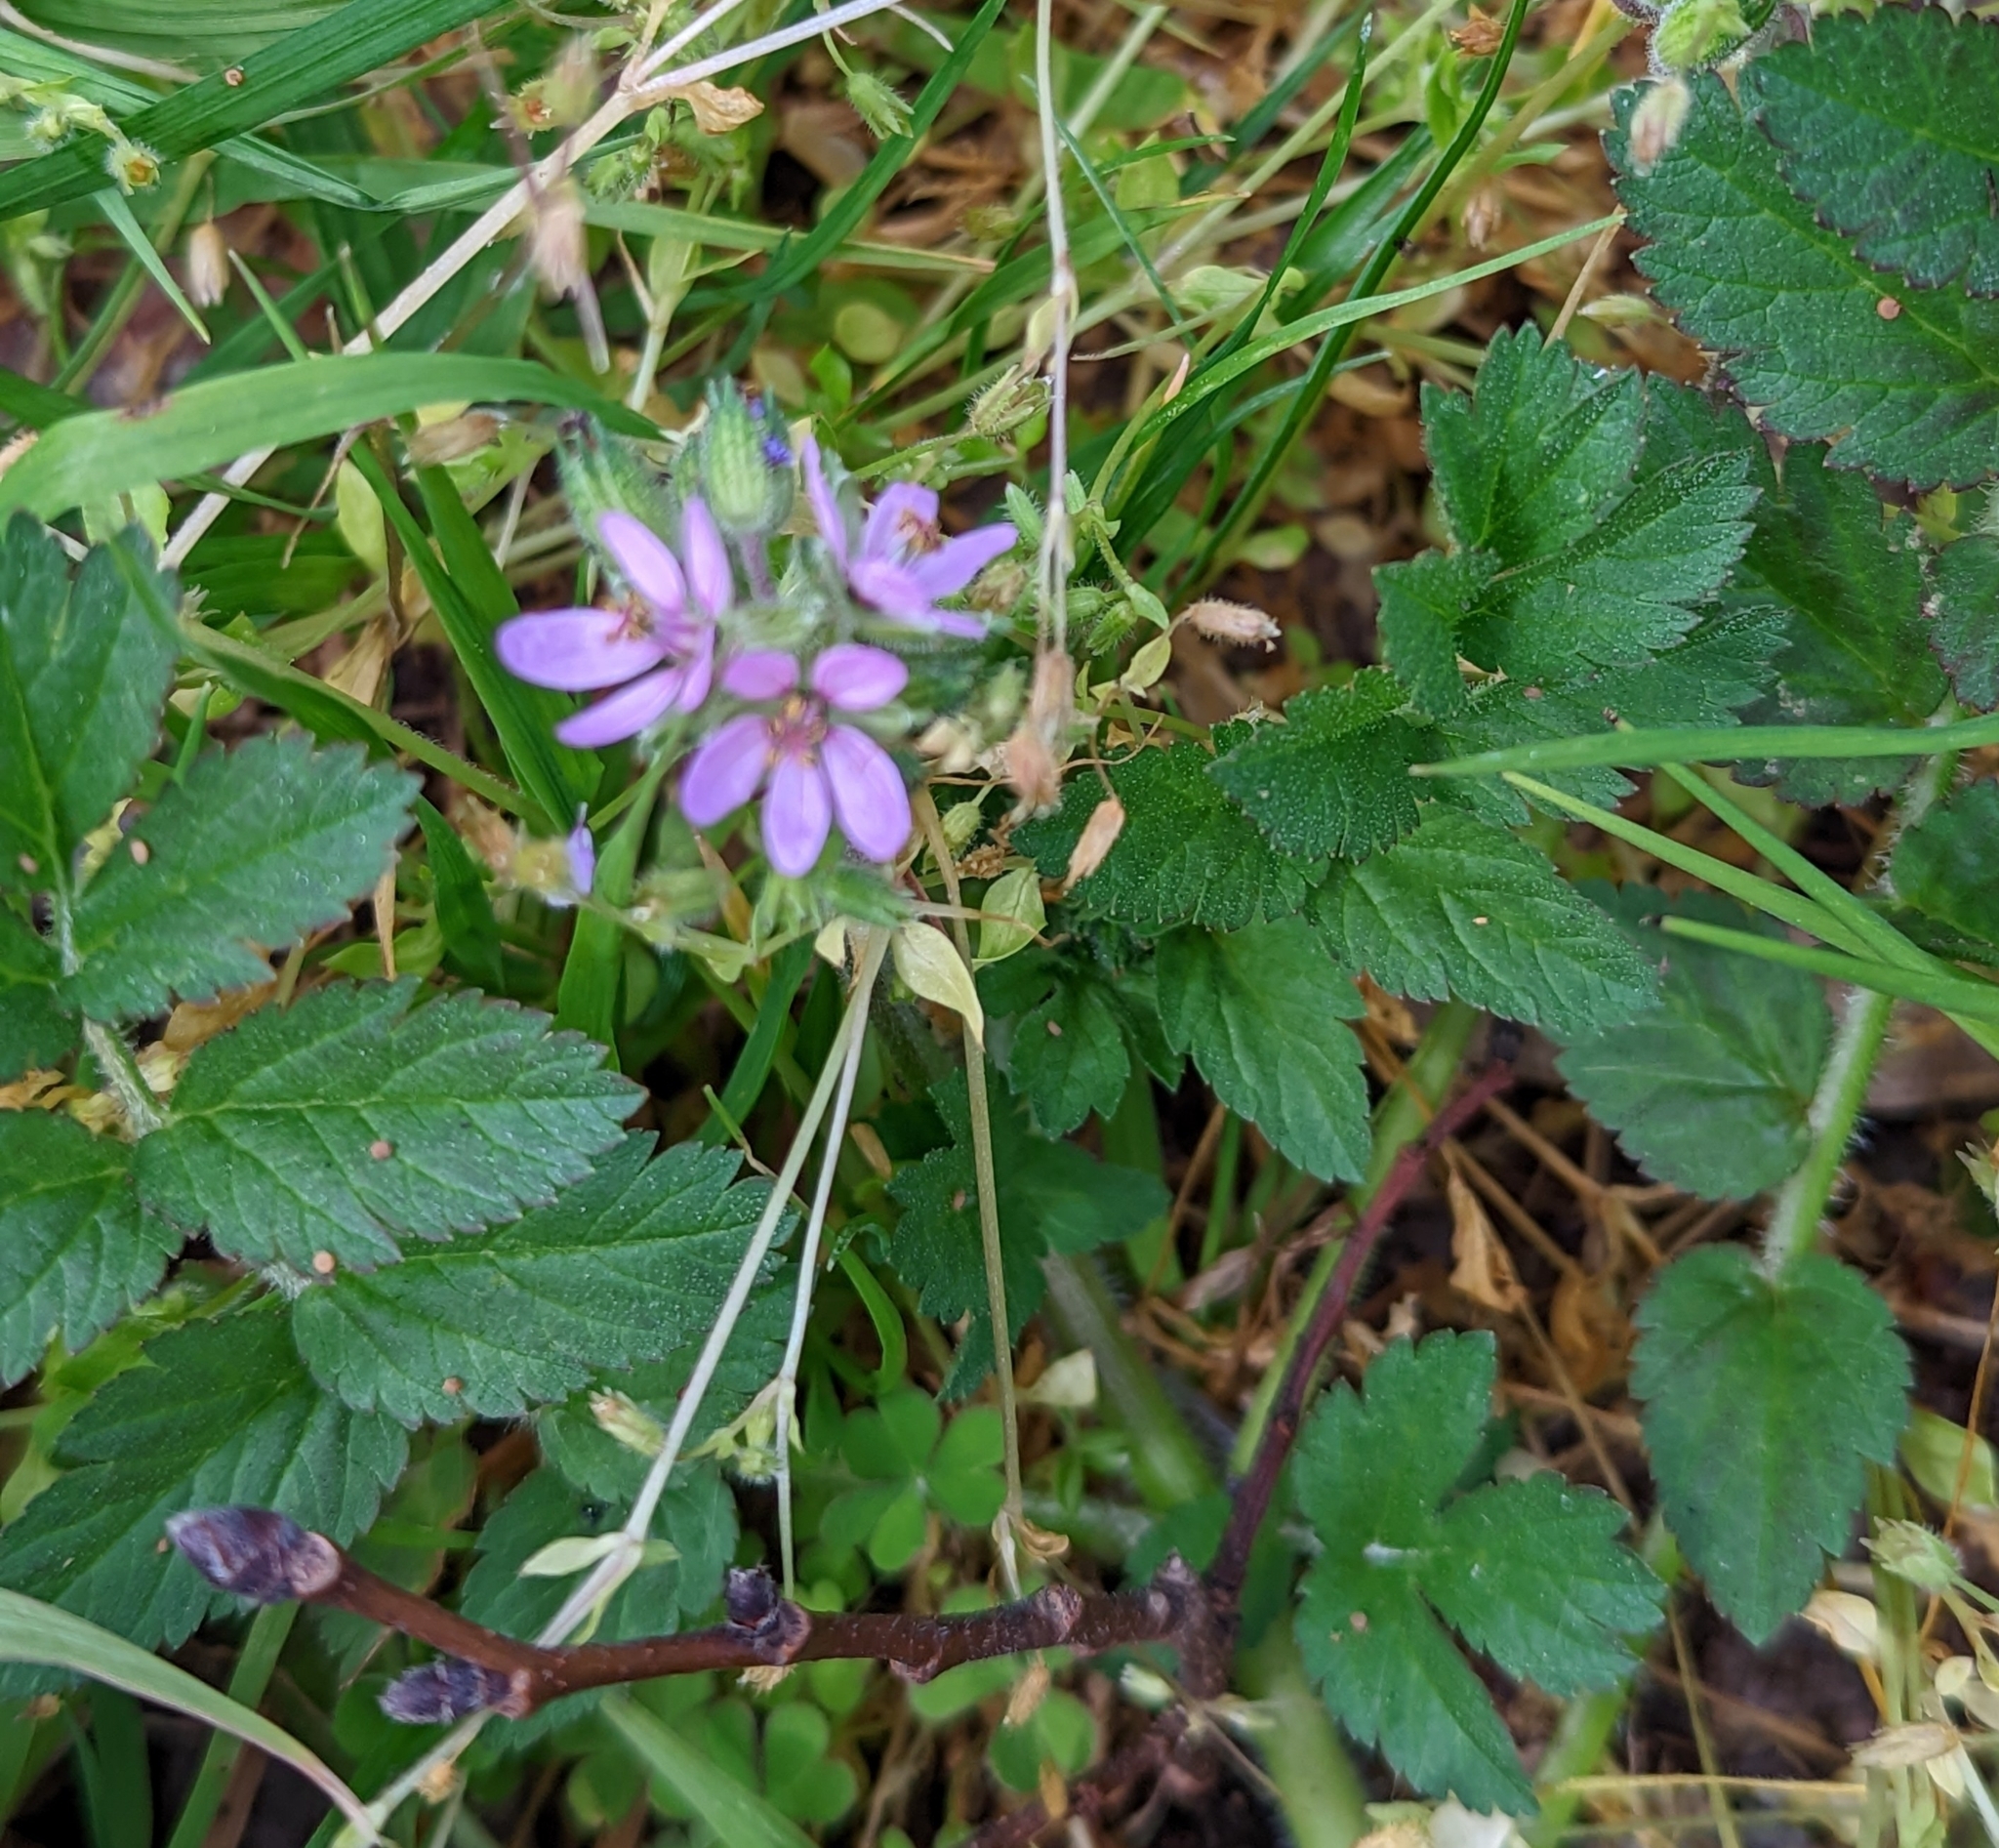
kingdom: Plantae
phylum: Tracheophyta
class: Magnoliopsida
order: Geraniales
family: Geraniaceae
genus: Erodium
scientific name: Erodium moschatum
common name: Musk stork's-bill
